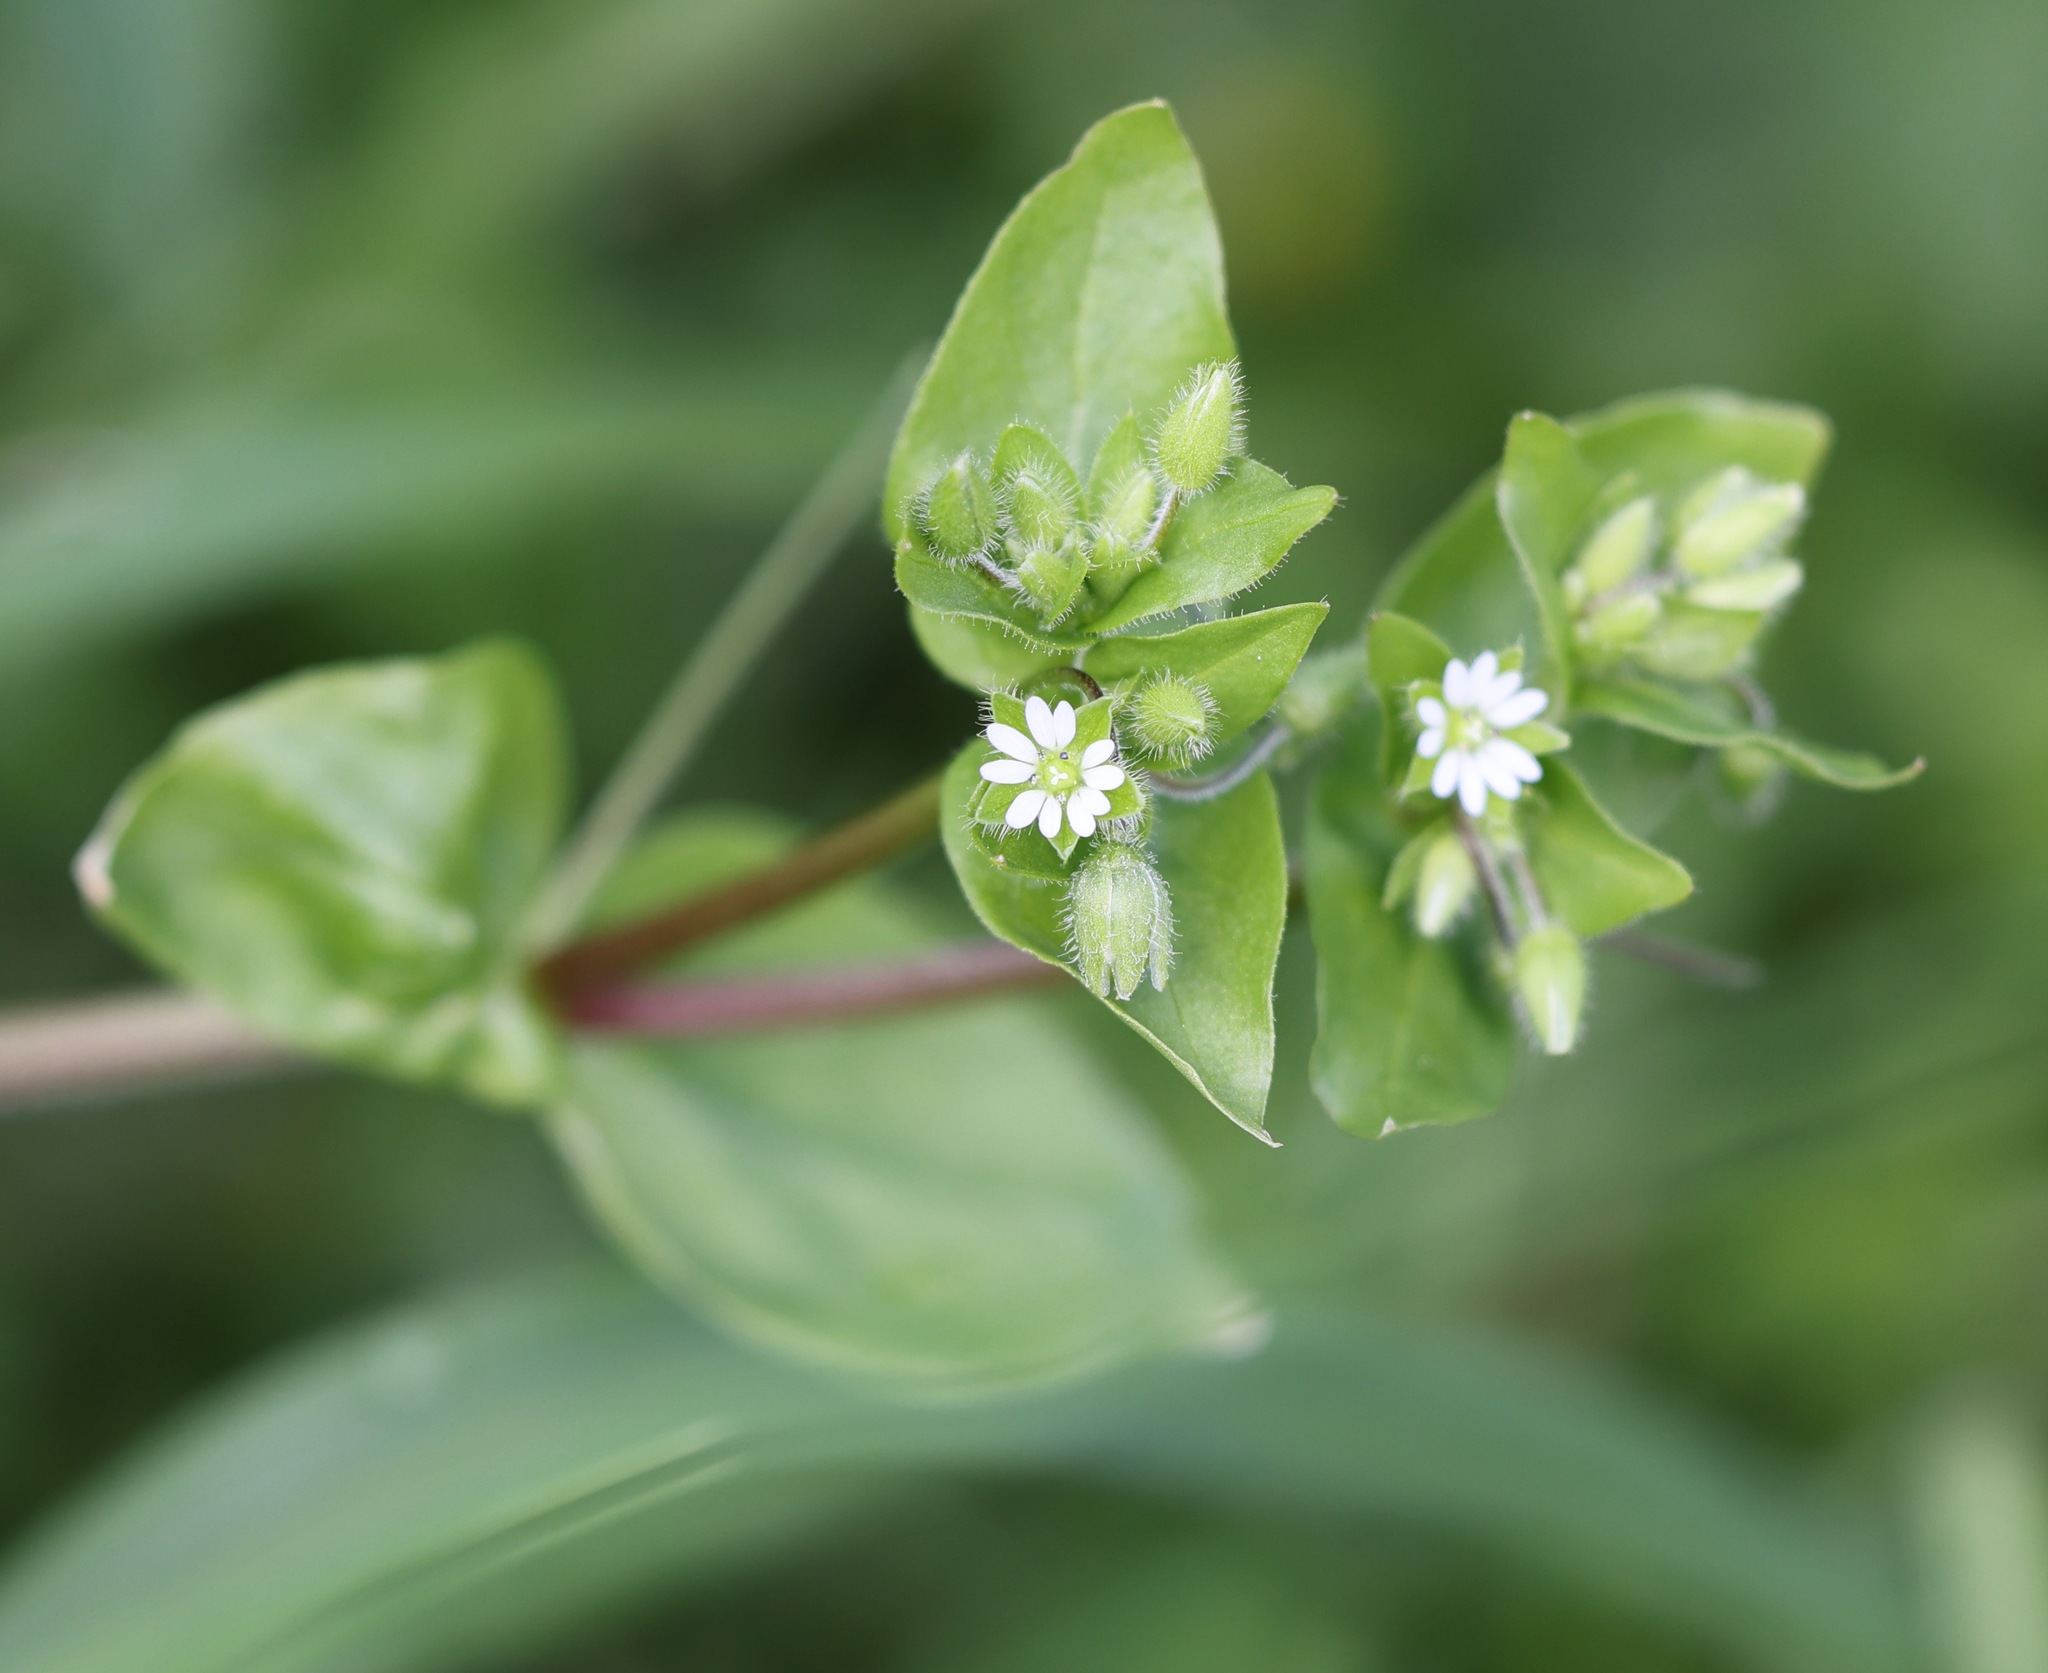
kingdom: Plantae
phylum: Tracheophyta
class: Magnoliopsida
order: Caryophyllales
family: Caryophyllaceae
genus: Stellaria
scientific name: Stellaria media
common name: Common chickweed
